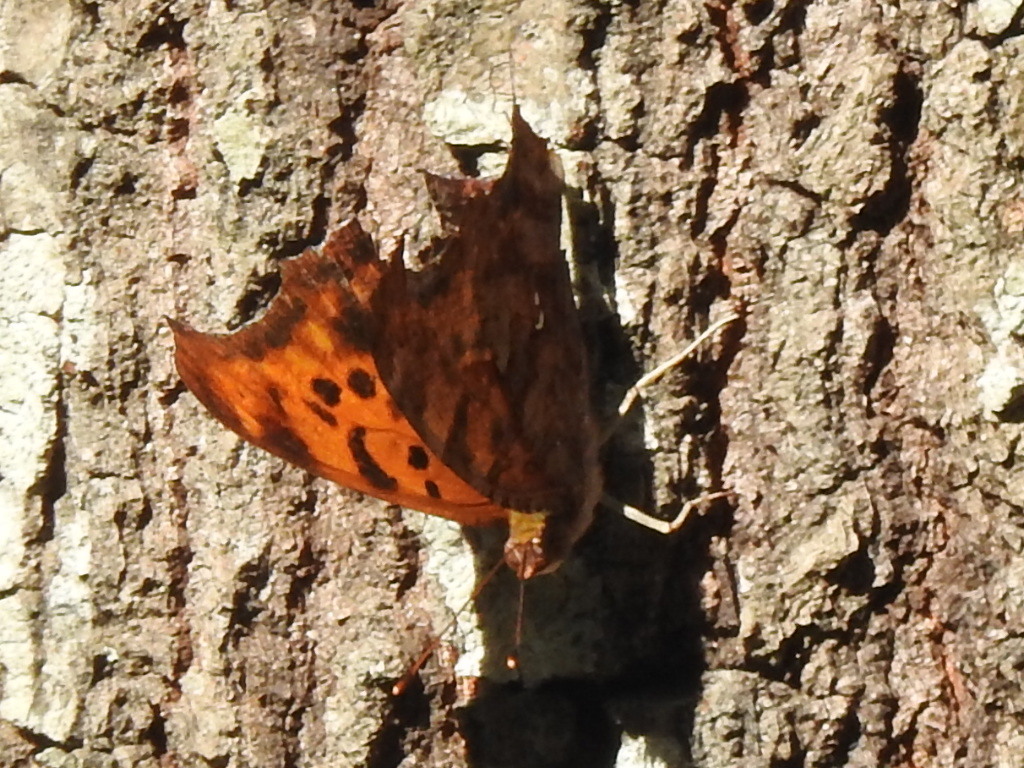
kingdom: Animalia
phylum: Arthropoda
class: Insecta
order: Lepidoptera
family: Nymphalidae
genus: Polygonia
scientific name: Polygonia interrogationis
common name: Question mark
